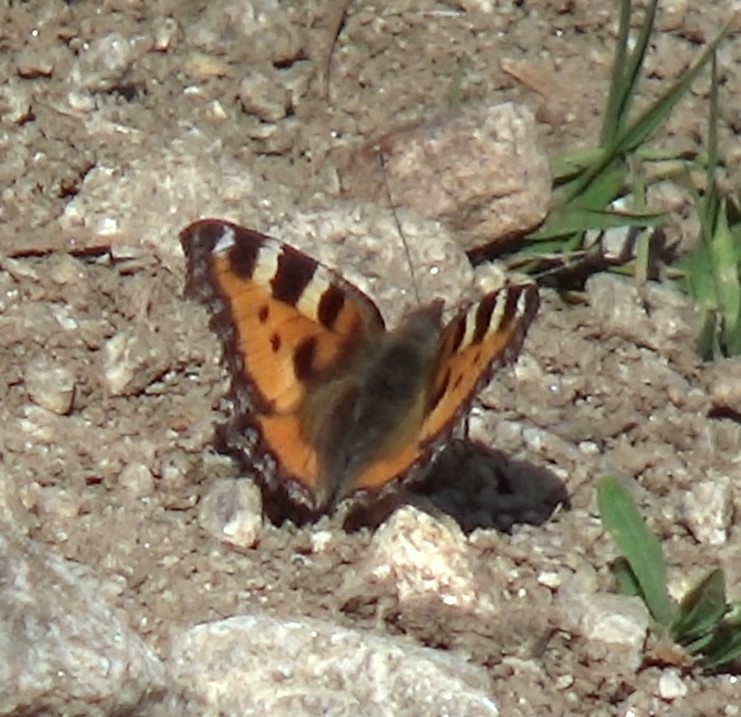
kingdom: Animalia
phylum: Arthropoda
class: Insecta
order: Lepidoptera
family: Nymphalidae
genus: Aglais
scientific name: Aglais urticae
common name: Small tortoiseshell
